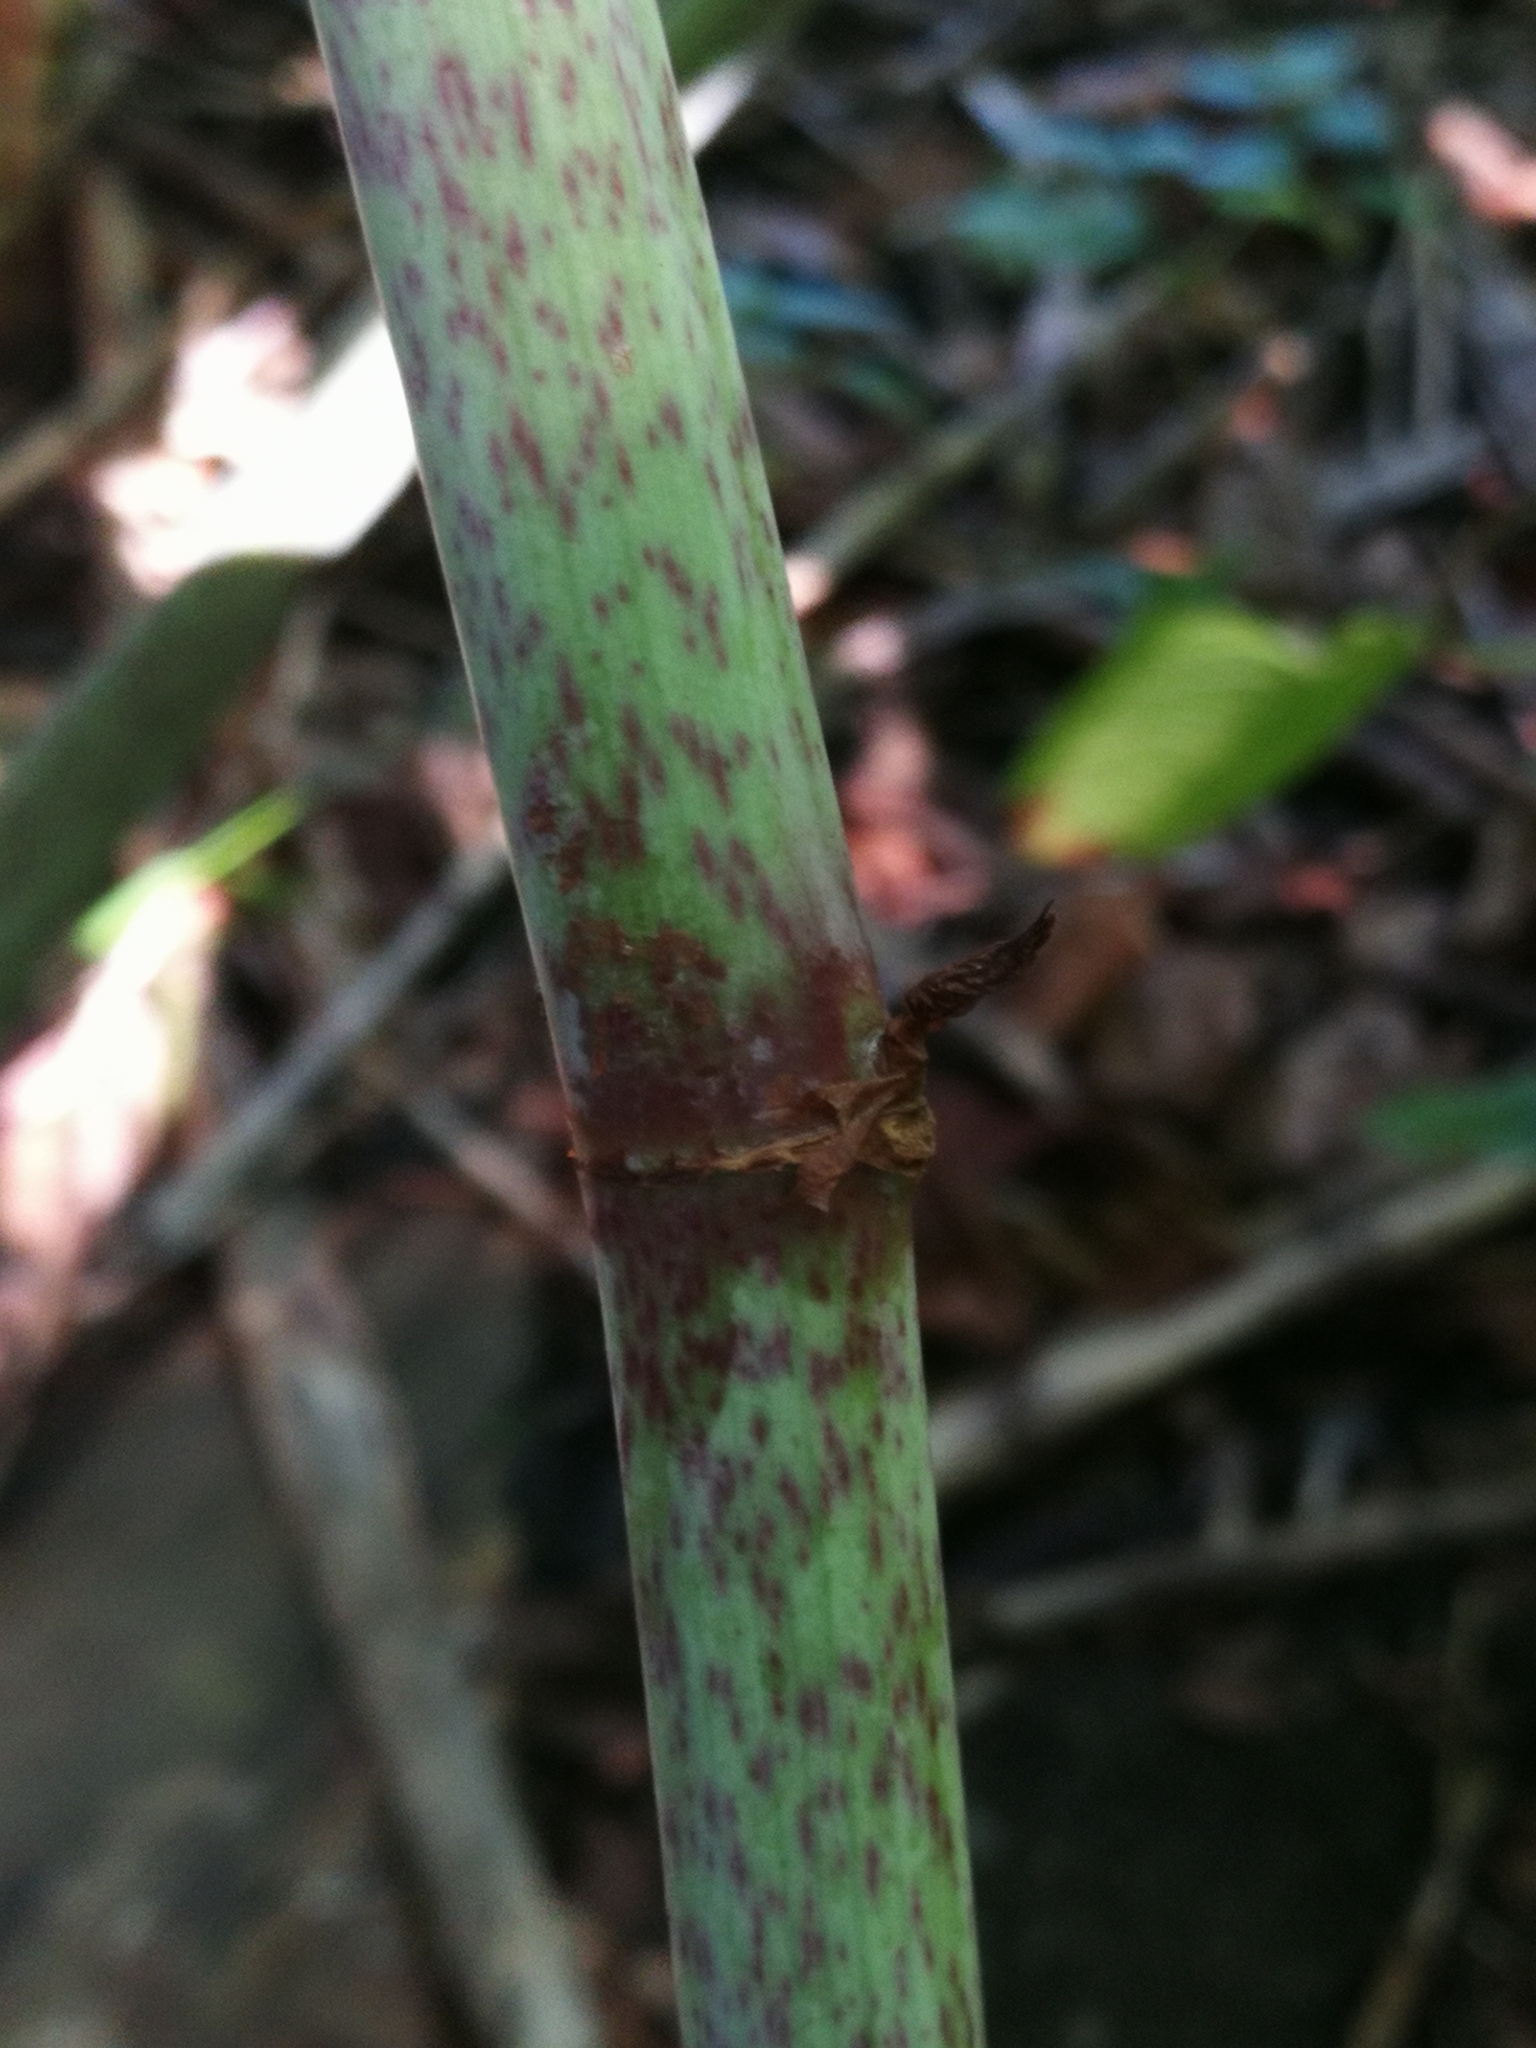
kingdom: Plantae
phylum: Tracheophyta
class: Magnoliopsida
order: Caryophyllales
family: Polygonaceae
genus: Reynoutria
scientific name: Reynoutria japonica
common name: Japanese knotweed
